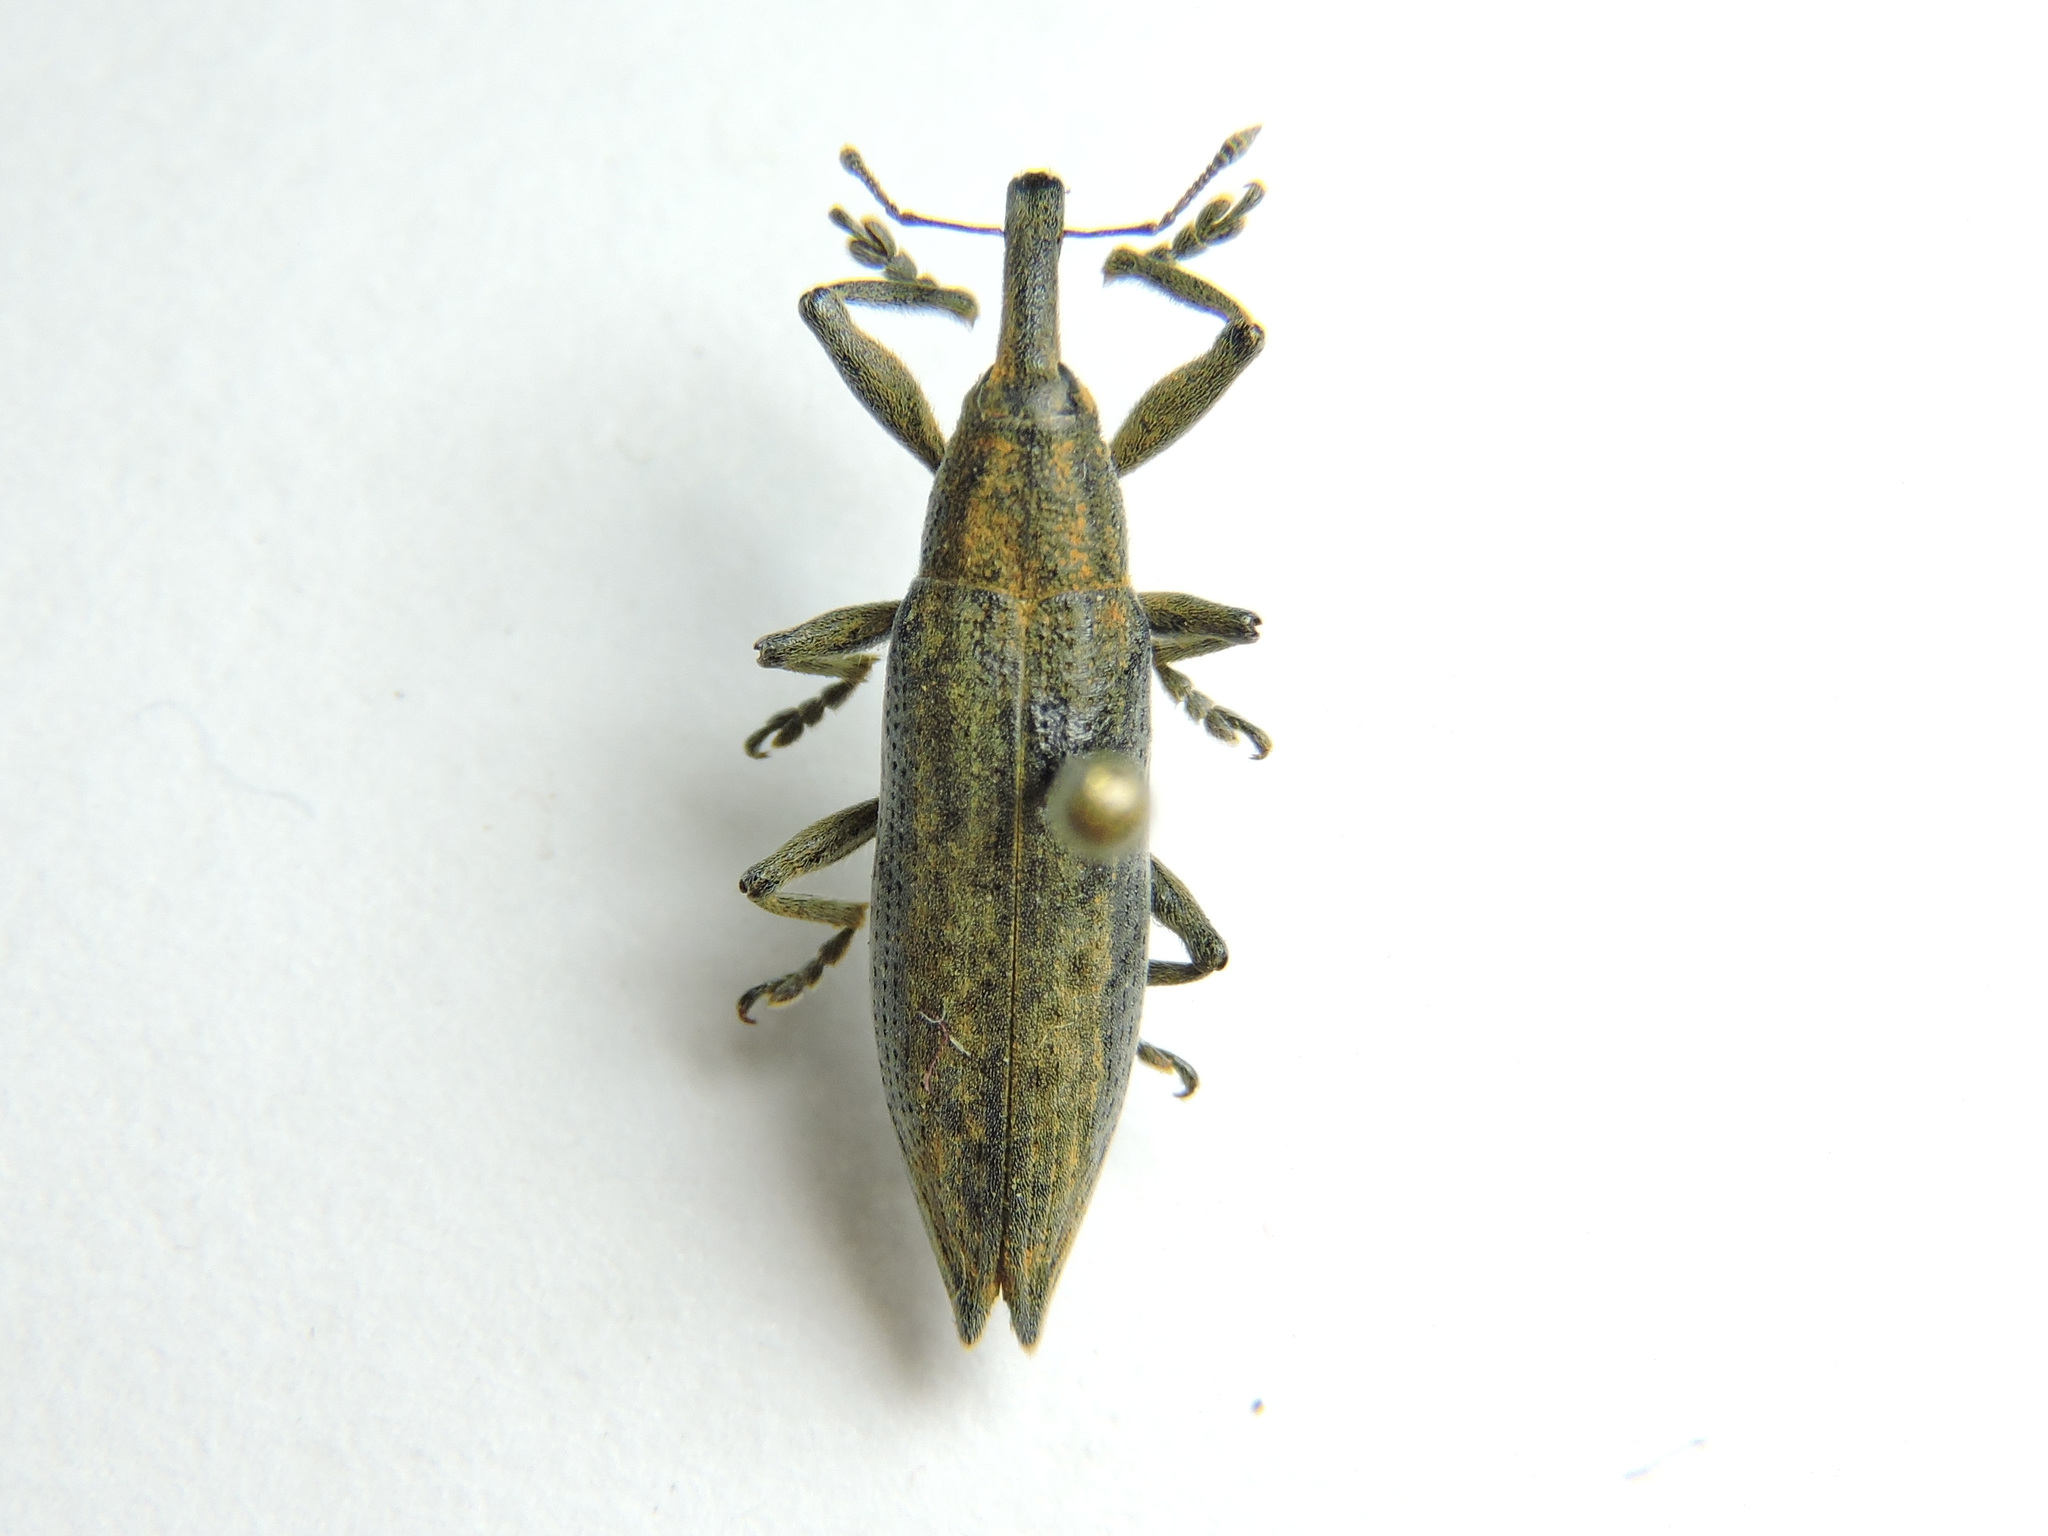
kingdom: Animalia
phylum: Arthropoda
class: Insecta
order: Coleoptera
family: Curculionidae
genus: Lixus
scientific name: Lixus iridis
